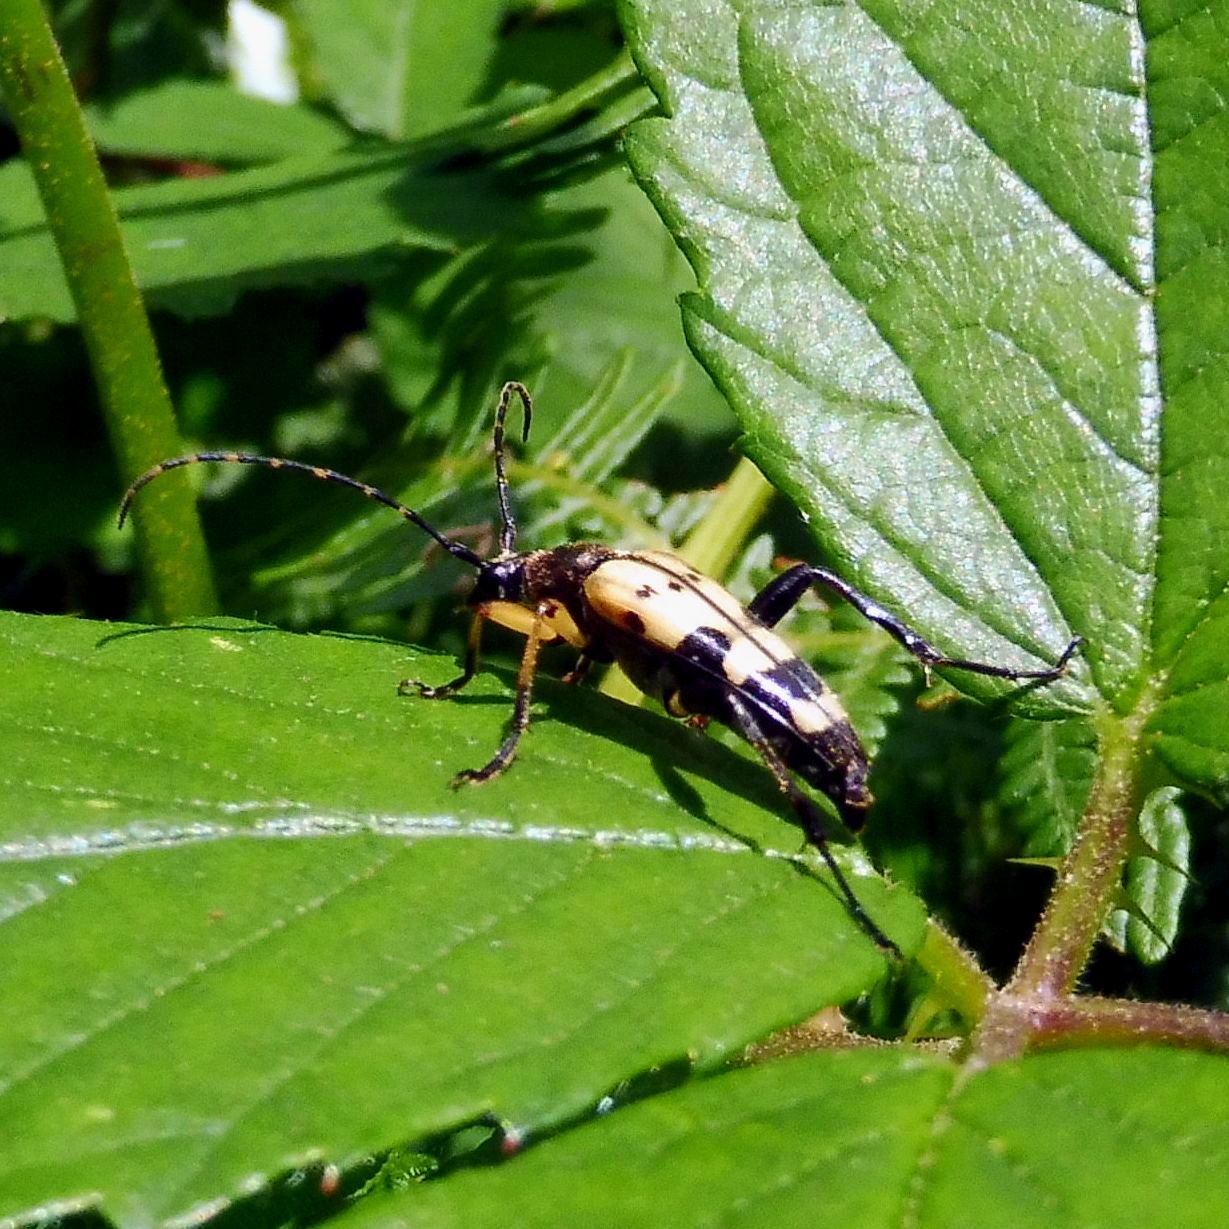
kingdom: Animalia
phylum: Arthropoda
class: Insecta
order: Coleoptera
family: Cerambycidae
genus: Rutpela
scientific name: Rutpela maculata
